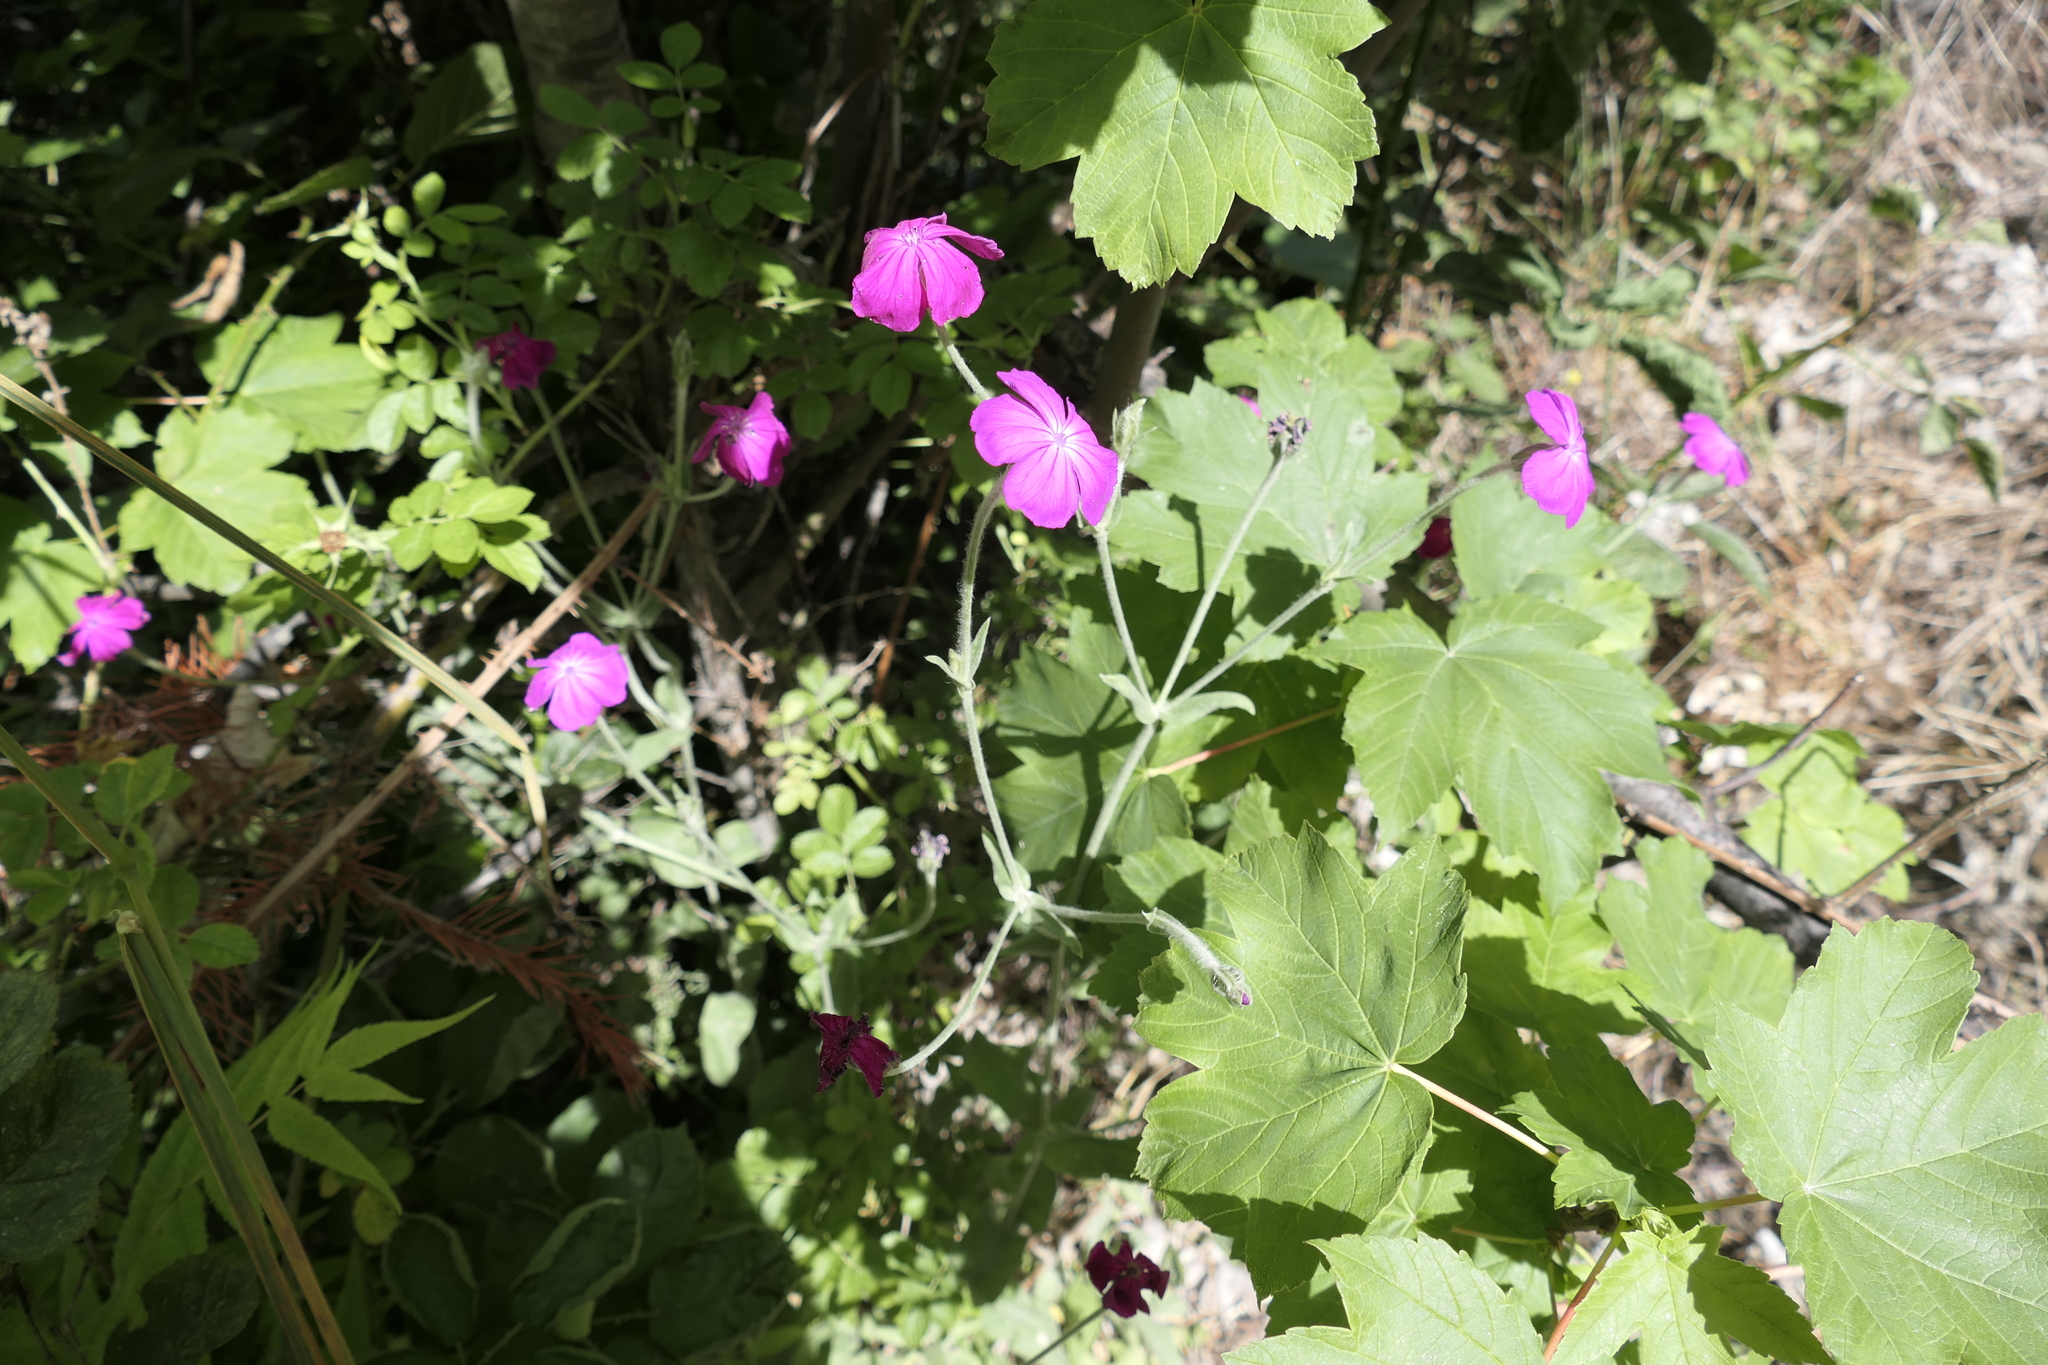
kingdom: Plantae
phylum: Tracheophyta
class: Magnoliopsida
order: Caryophyllales
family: Caryophyllaceae
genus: Silene
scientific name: Silene coronaria
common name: Rose campion
